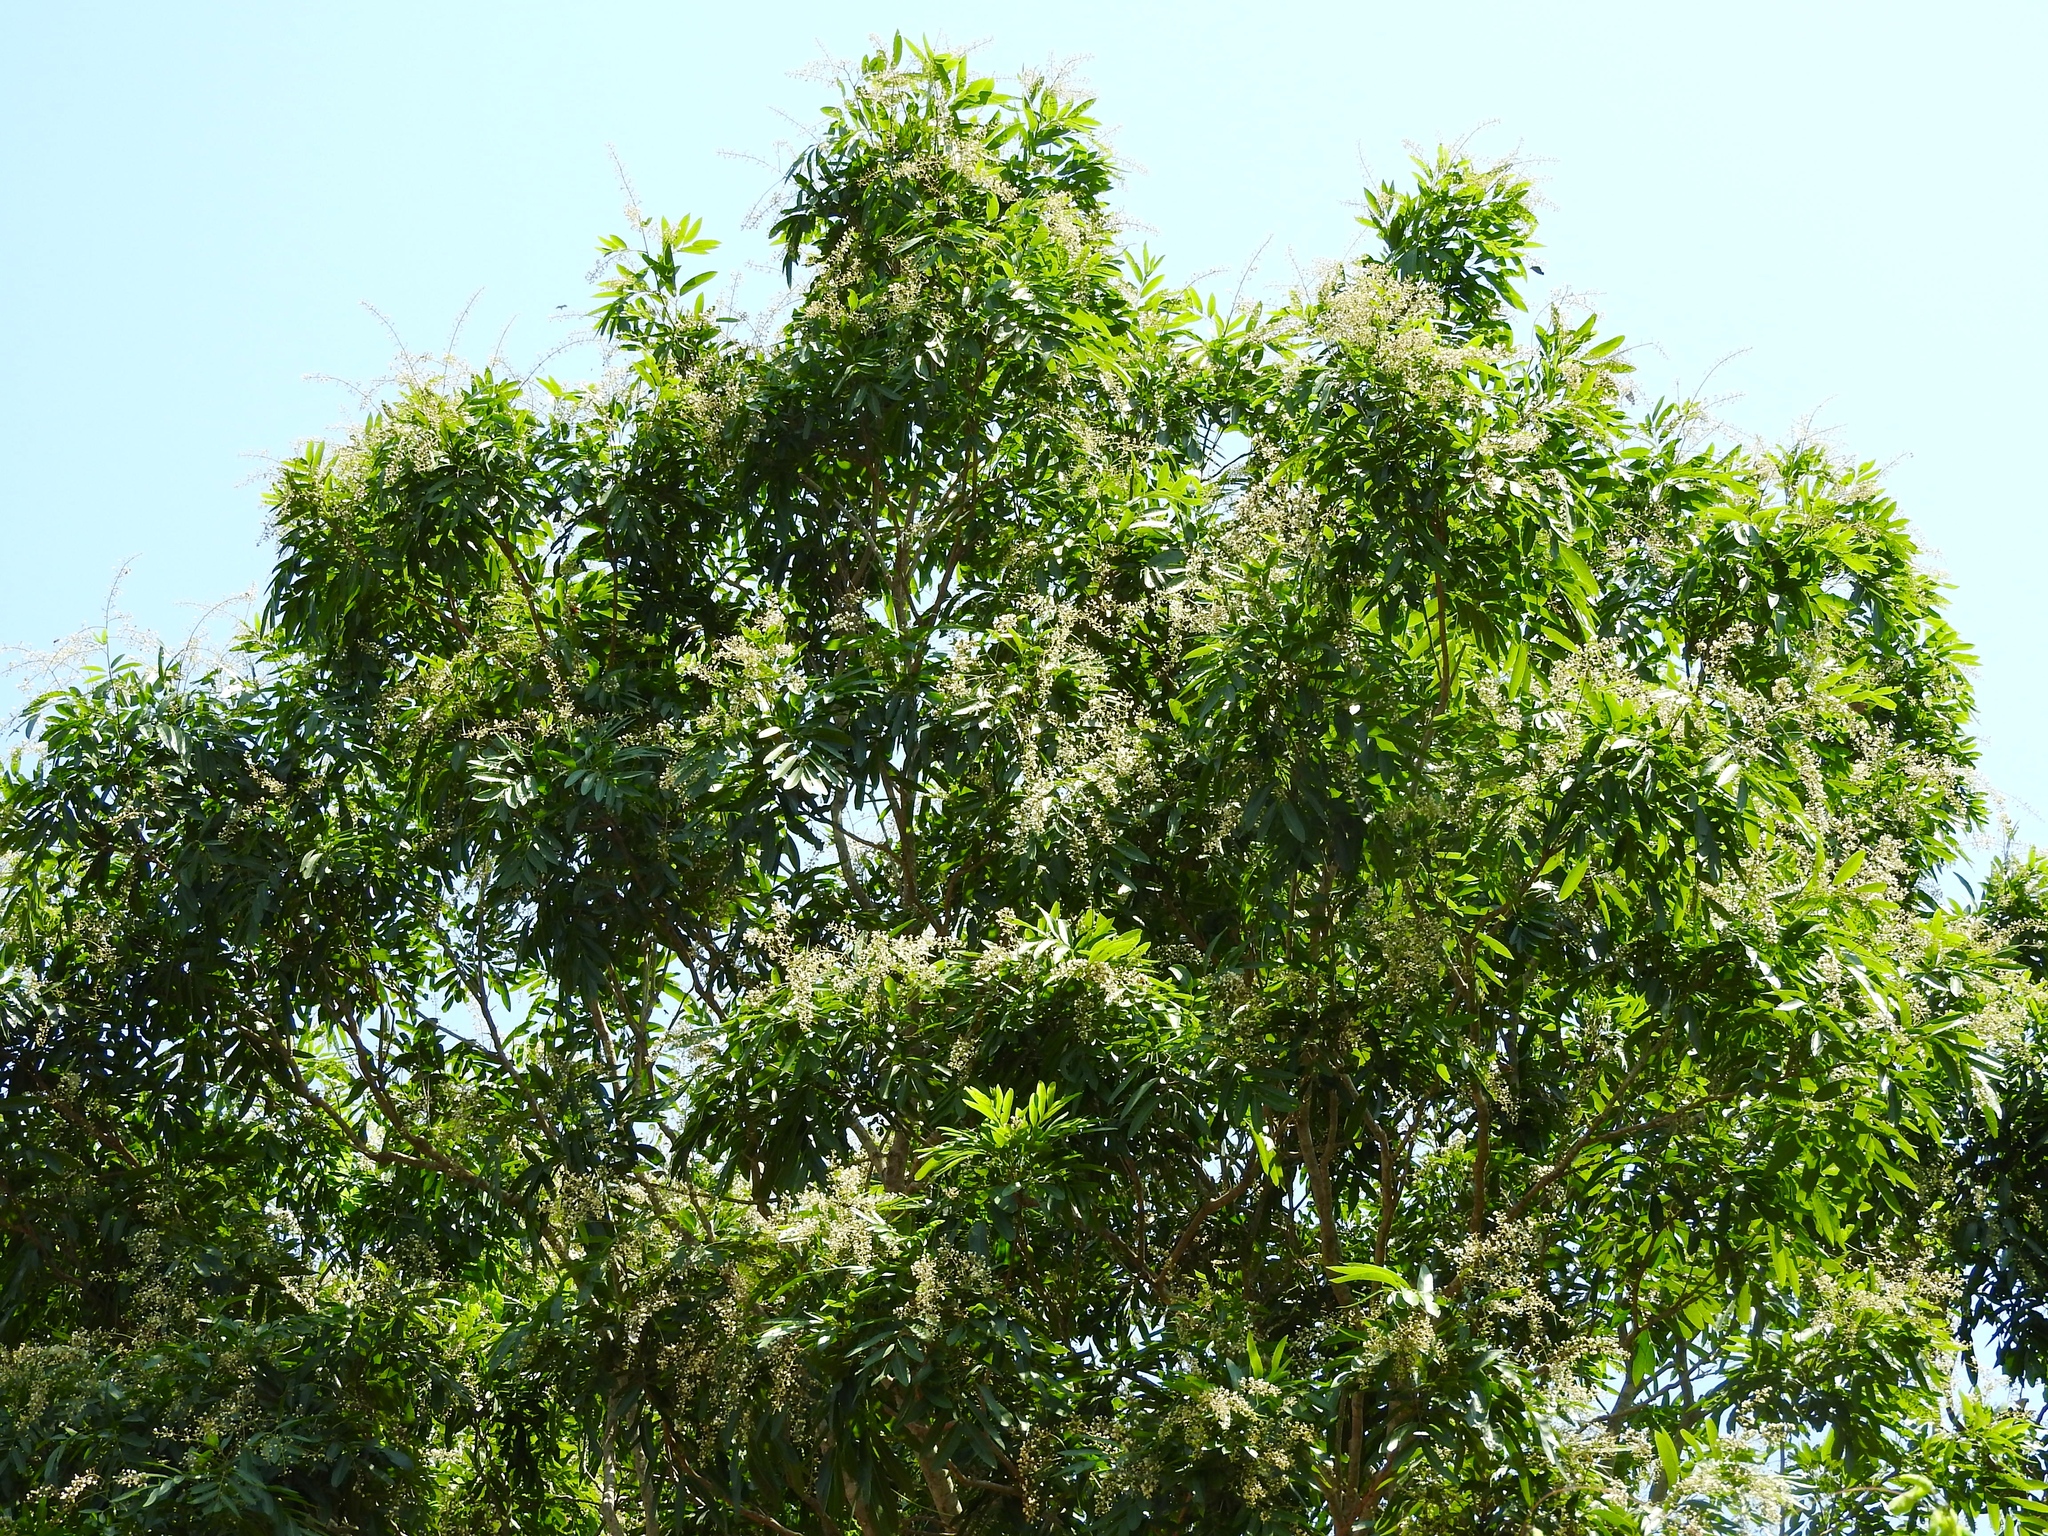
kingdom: Plantae
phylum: Tracheophyta
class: Magnoliopsida
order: Sapindales
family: Sapindaceae
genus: Thouinidium
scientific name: Thouinidium decandrum
